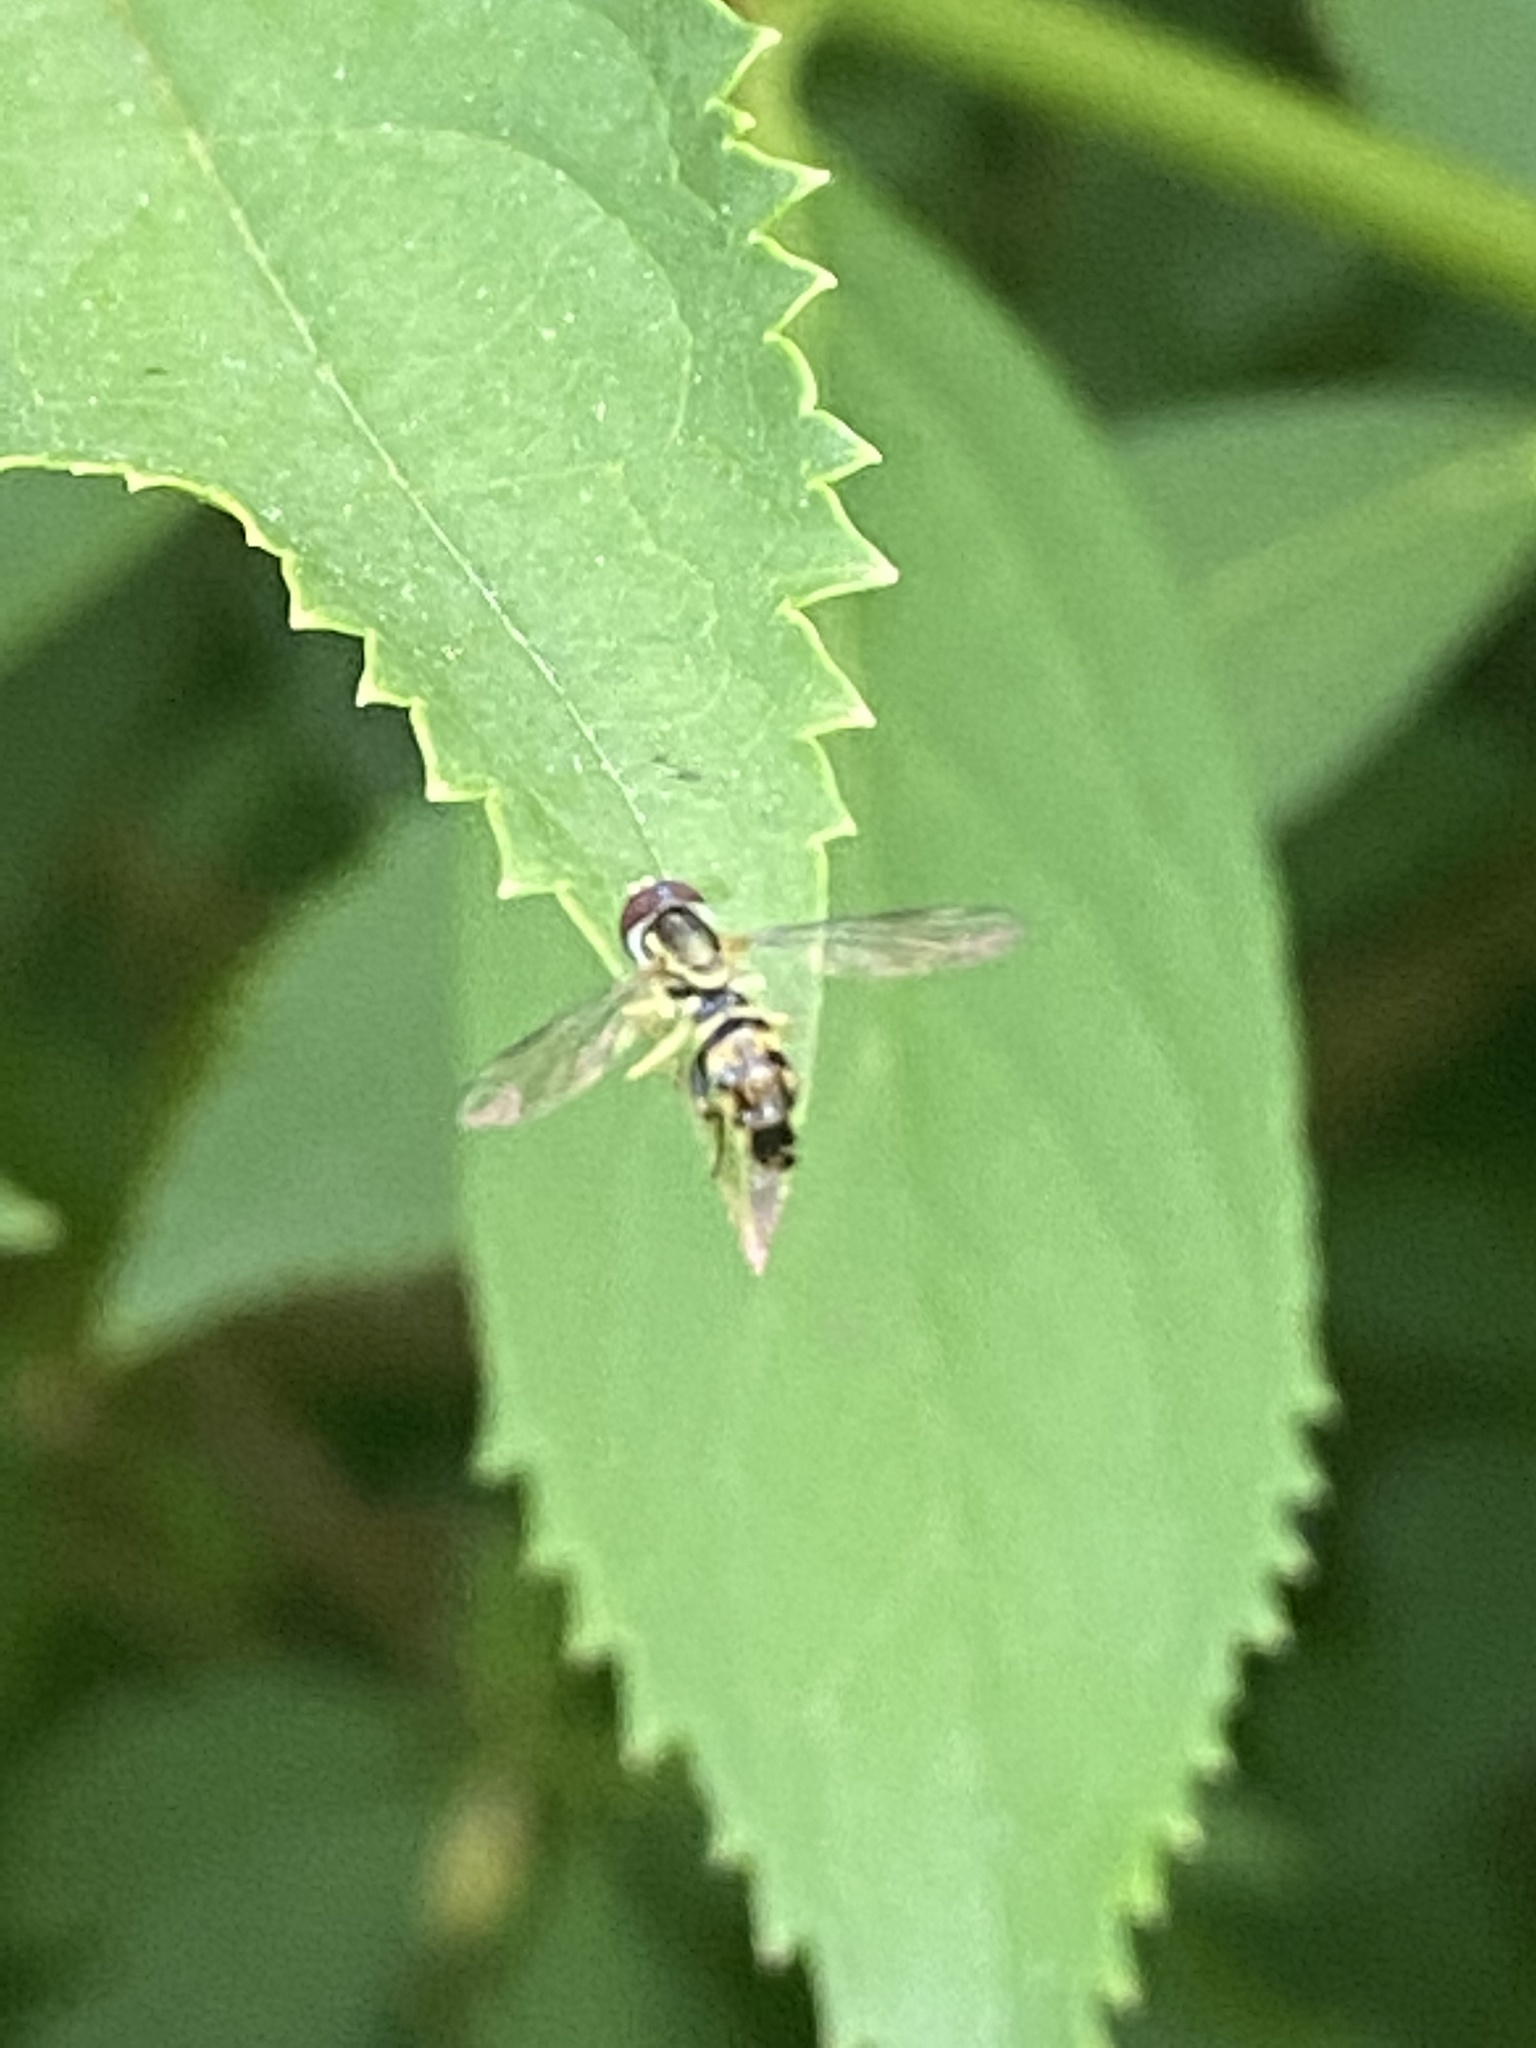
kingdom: Animalia
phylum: Arthropoda
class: Insecta
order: Diptera
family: Syrphidae
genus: Toxomerus
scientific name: Toxomerus geminatus
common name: Eastern calligrapher
